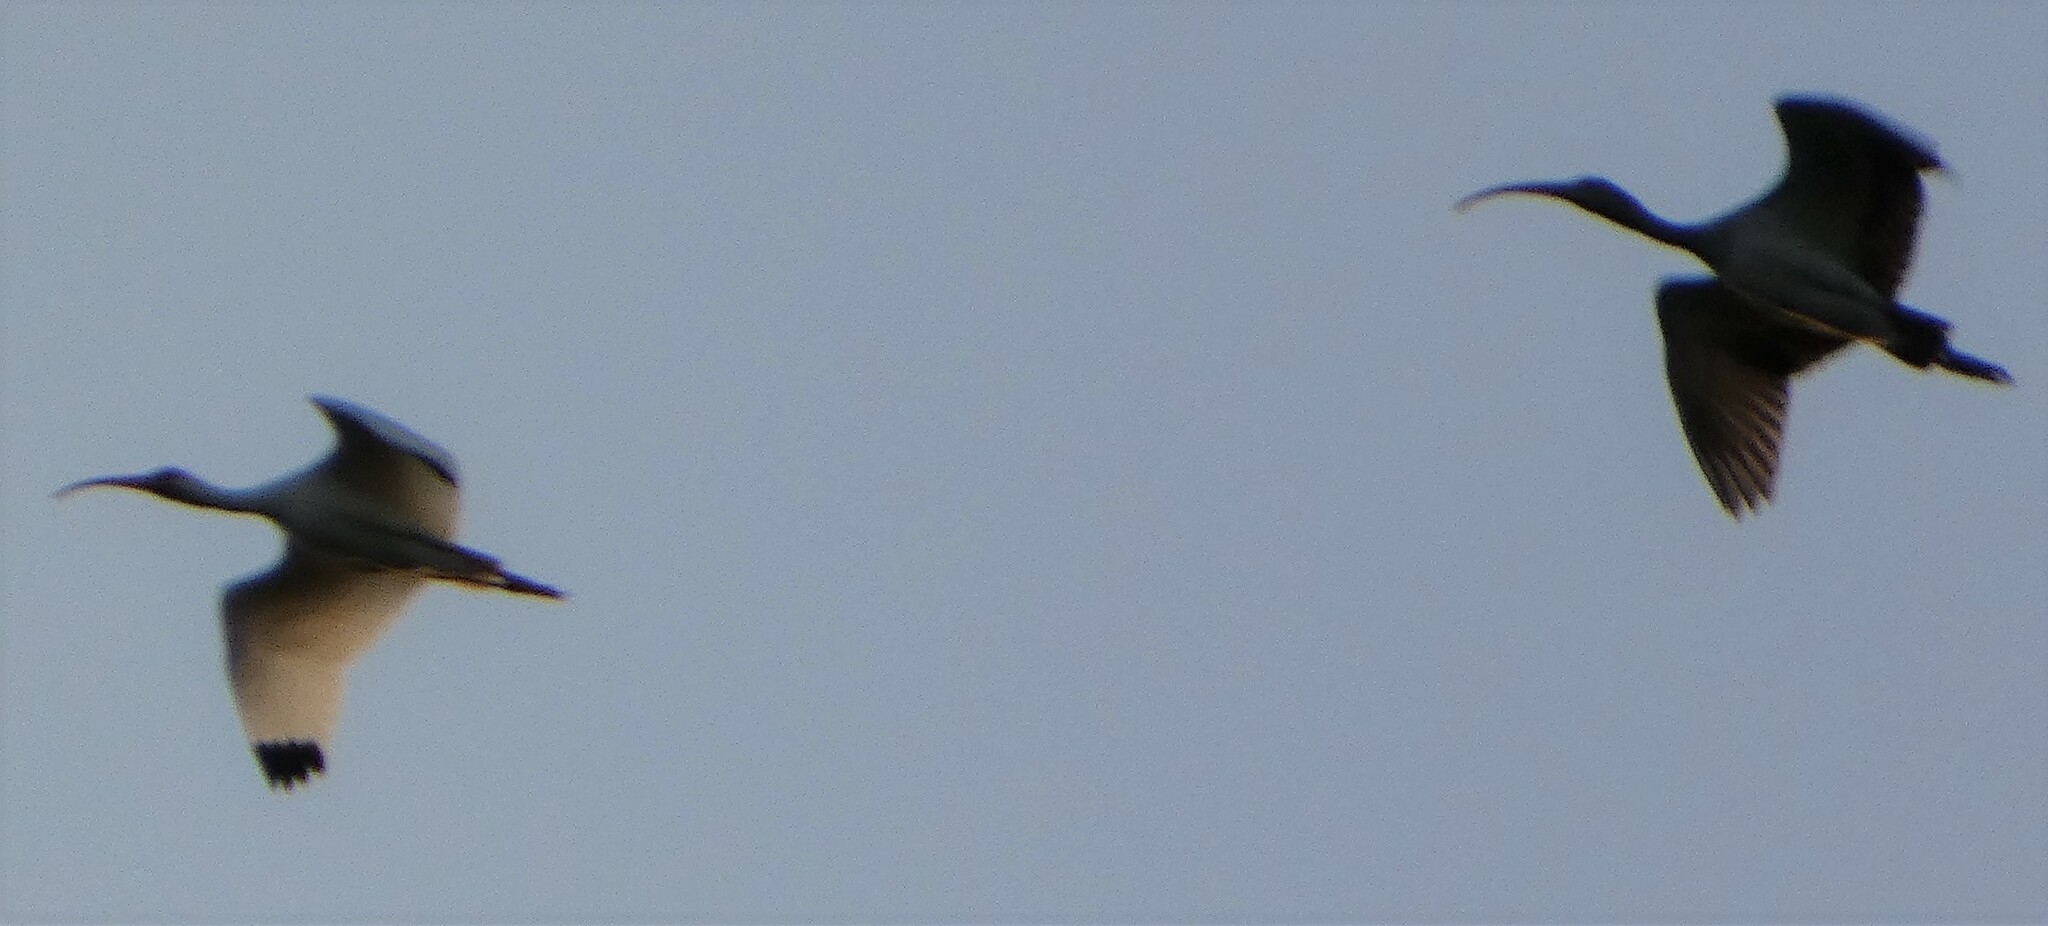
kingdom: Animalia
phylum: Chordata
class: Aves
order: Pelecaniformes
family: Threskiornithidae
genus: Eudocimus
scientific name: Eudocimus albus
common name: White ibis
